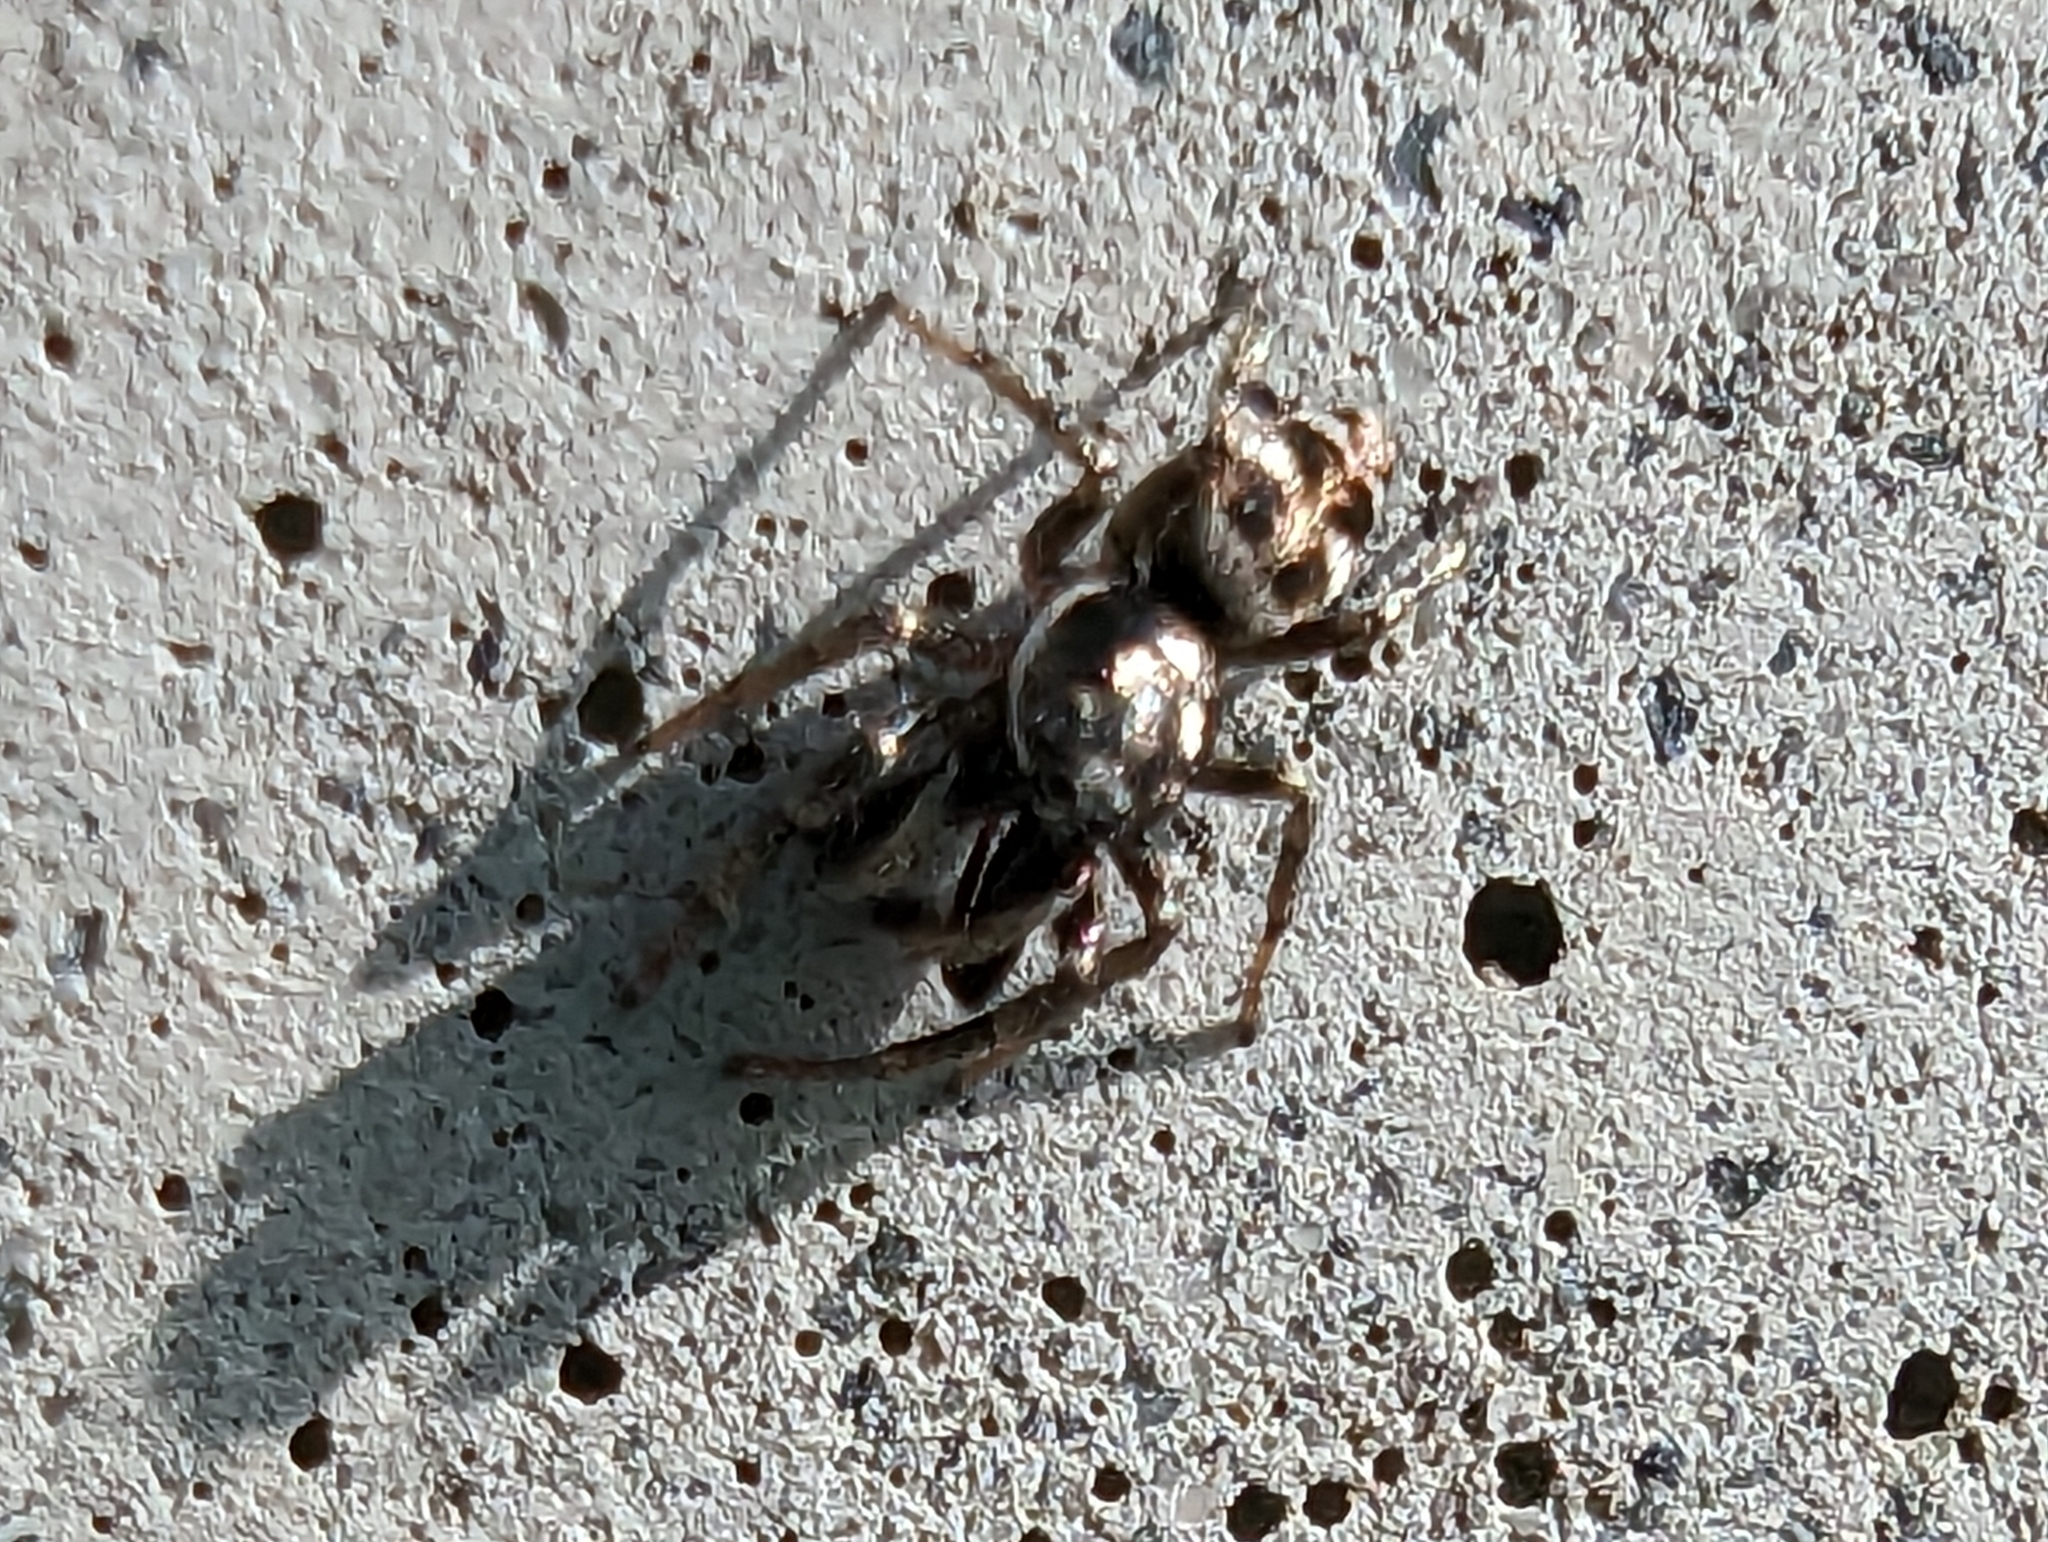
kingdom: Animalia
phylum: Arthropoda
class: Arachnida
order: Araneae
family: Salticidae
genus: Salticus
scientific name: Salticus scenicus
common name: Zebra jumper
